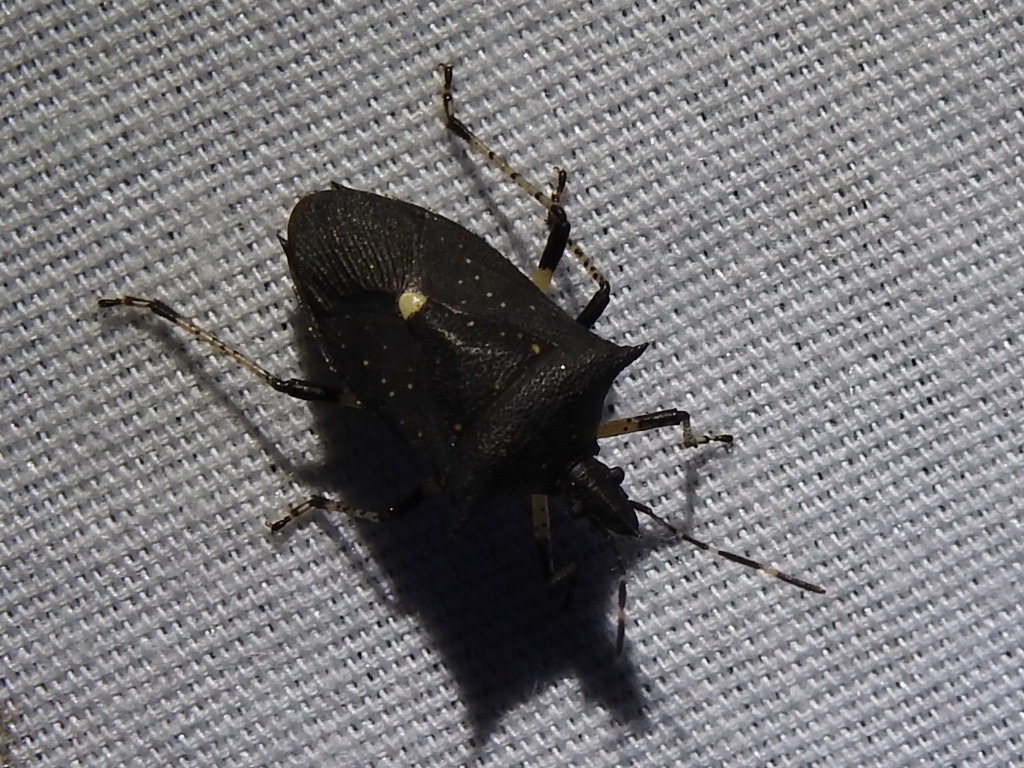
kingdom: Animalia
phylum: Arthropoda
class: Insecta
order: Hemiptera
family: Pentatomidae
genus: Proxys
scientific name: Proxys punctulatus
